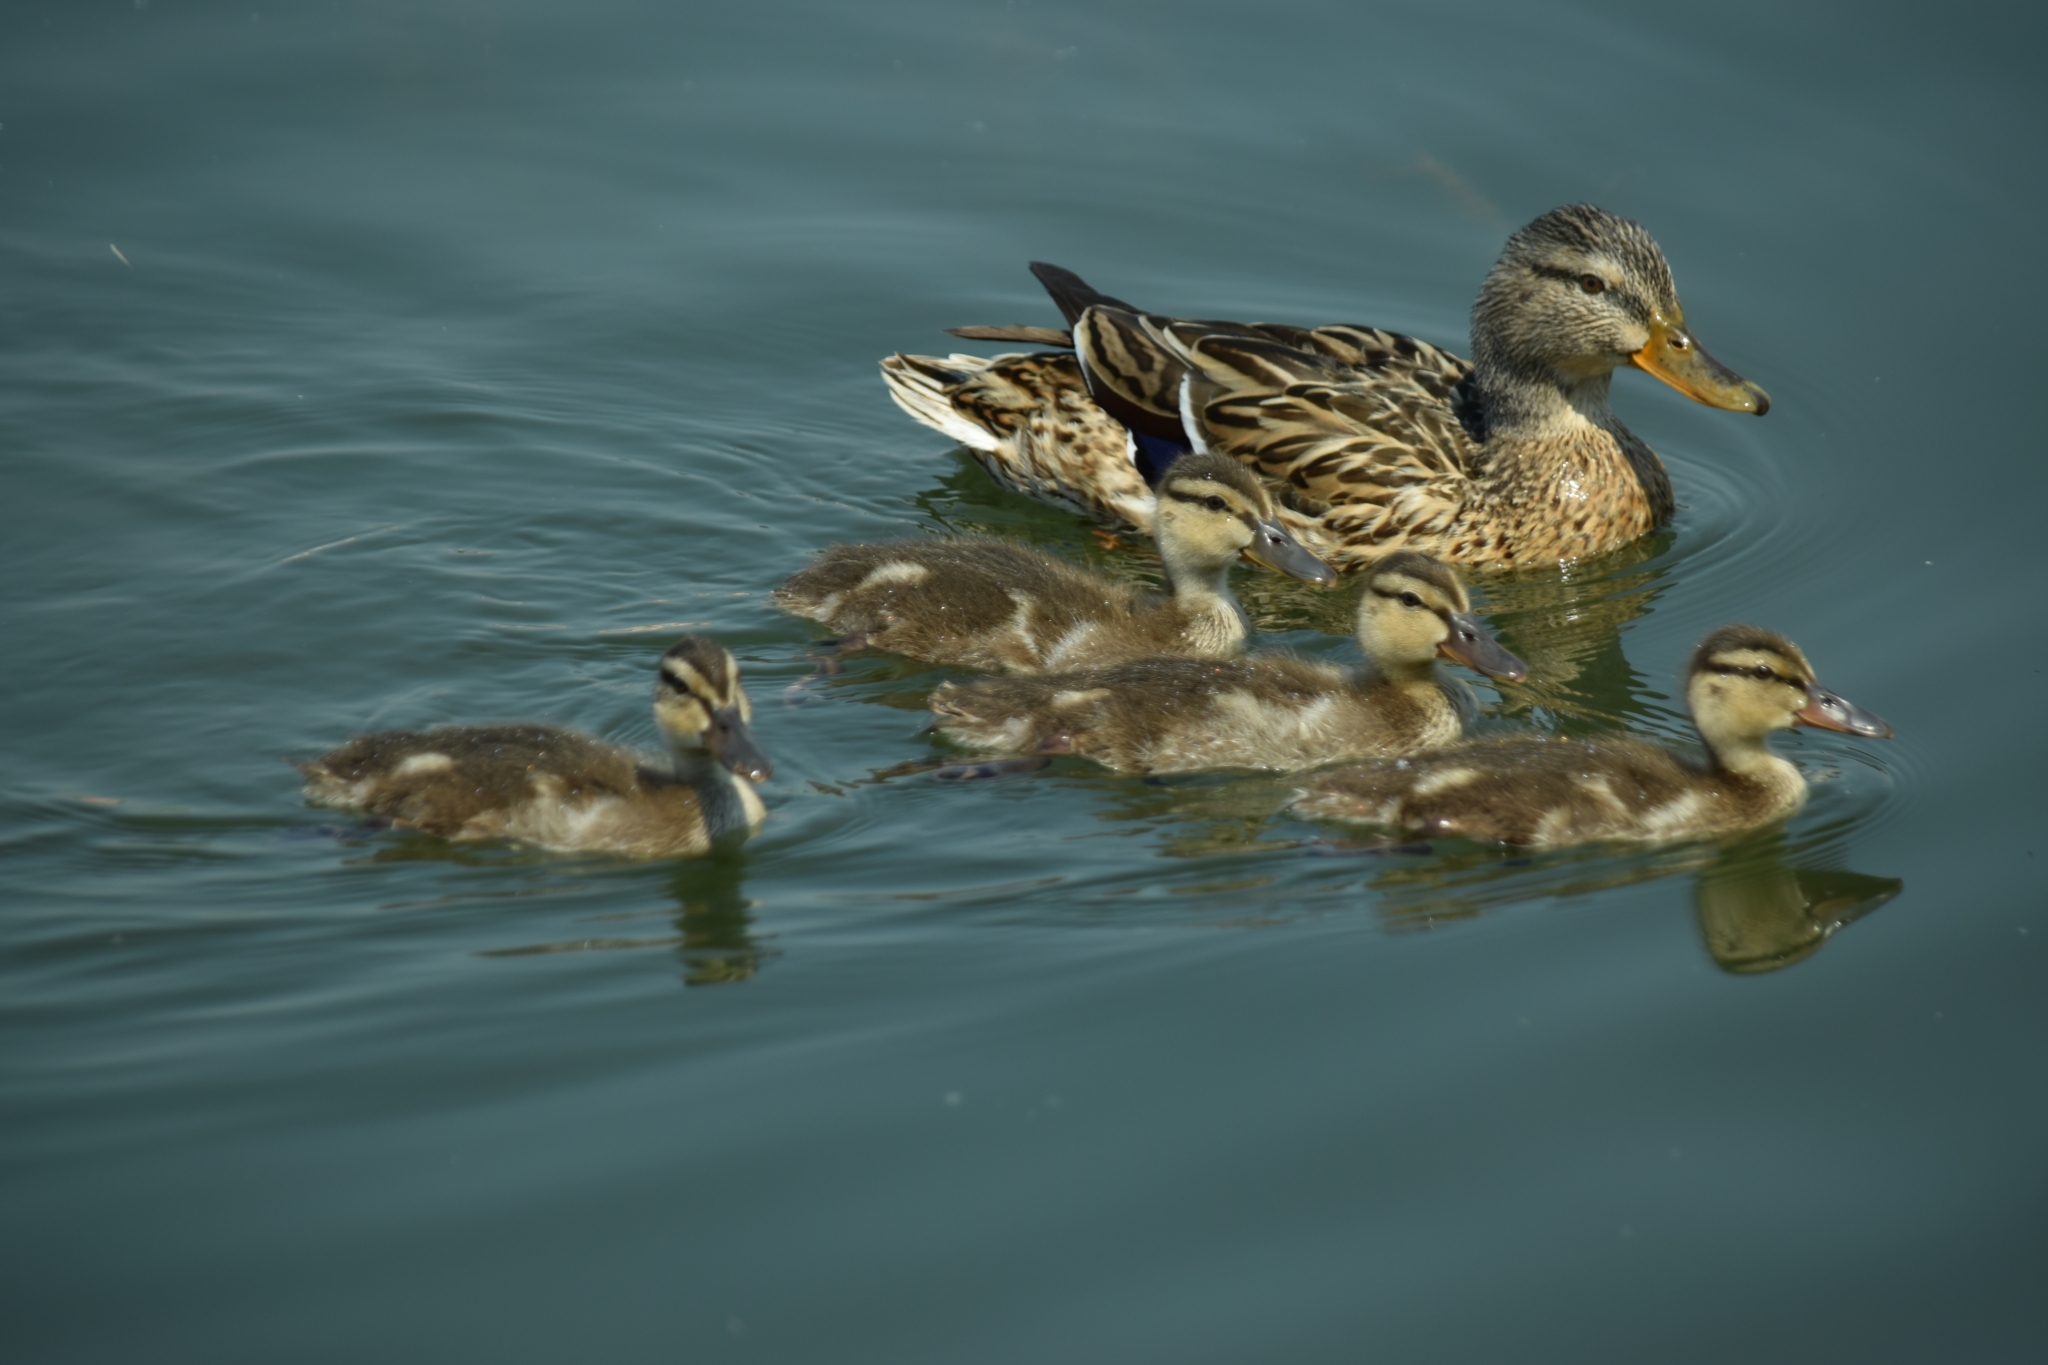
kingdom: Animalia
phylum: Chordata
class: Aves
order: Anseriformes
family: Anatidae
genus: Anas
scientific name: Anas platyrhynchos
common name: Mallard
